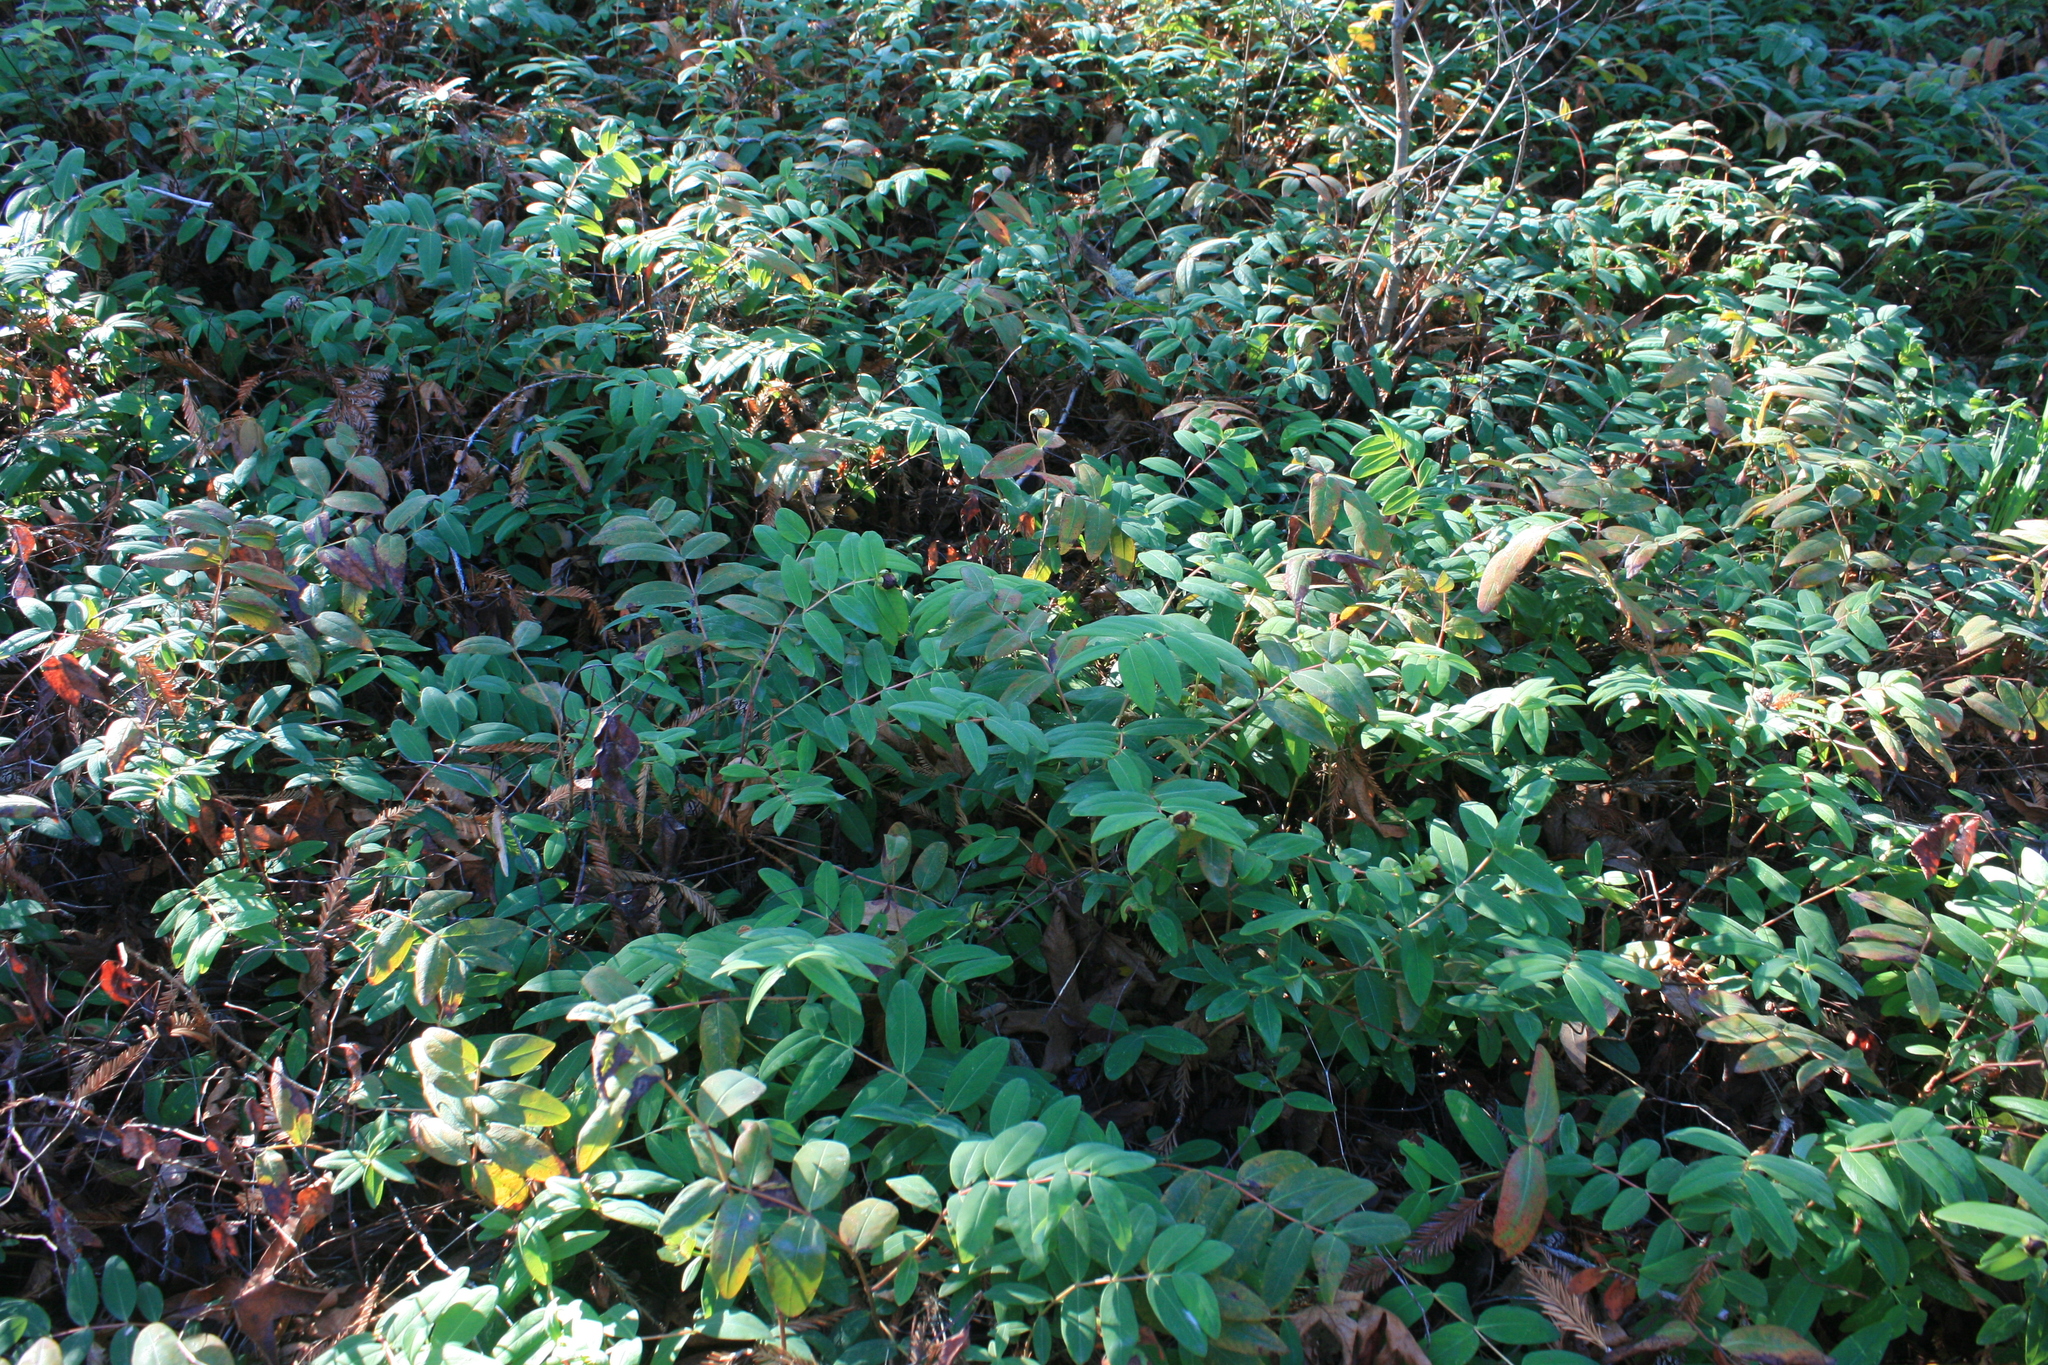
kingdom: Plantae
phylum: Tracheophyta
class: Magnoliopsida
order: Malpighiales
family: Hypericaceae
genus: Hypericum
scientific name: Hypericum calycinum
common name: Rose-of-sharon
